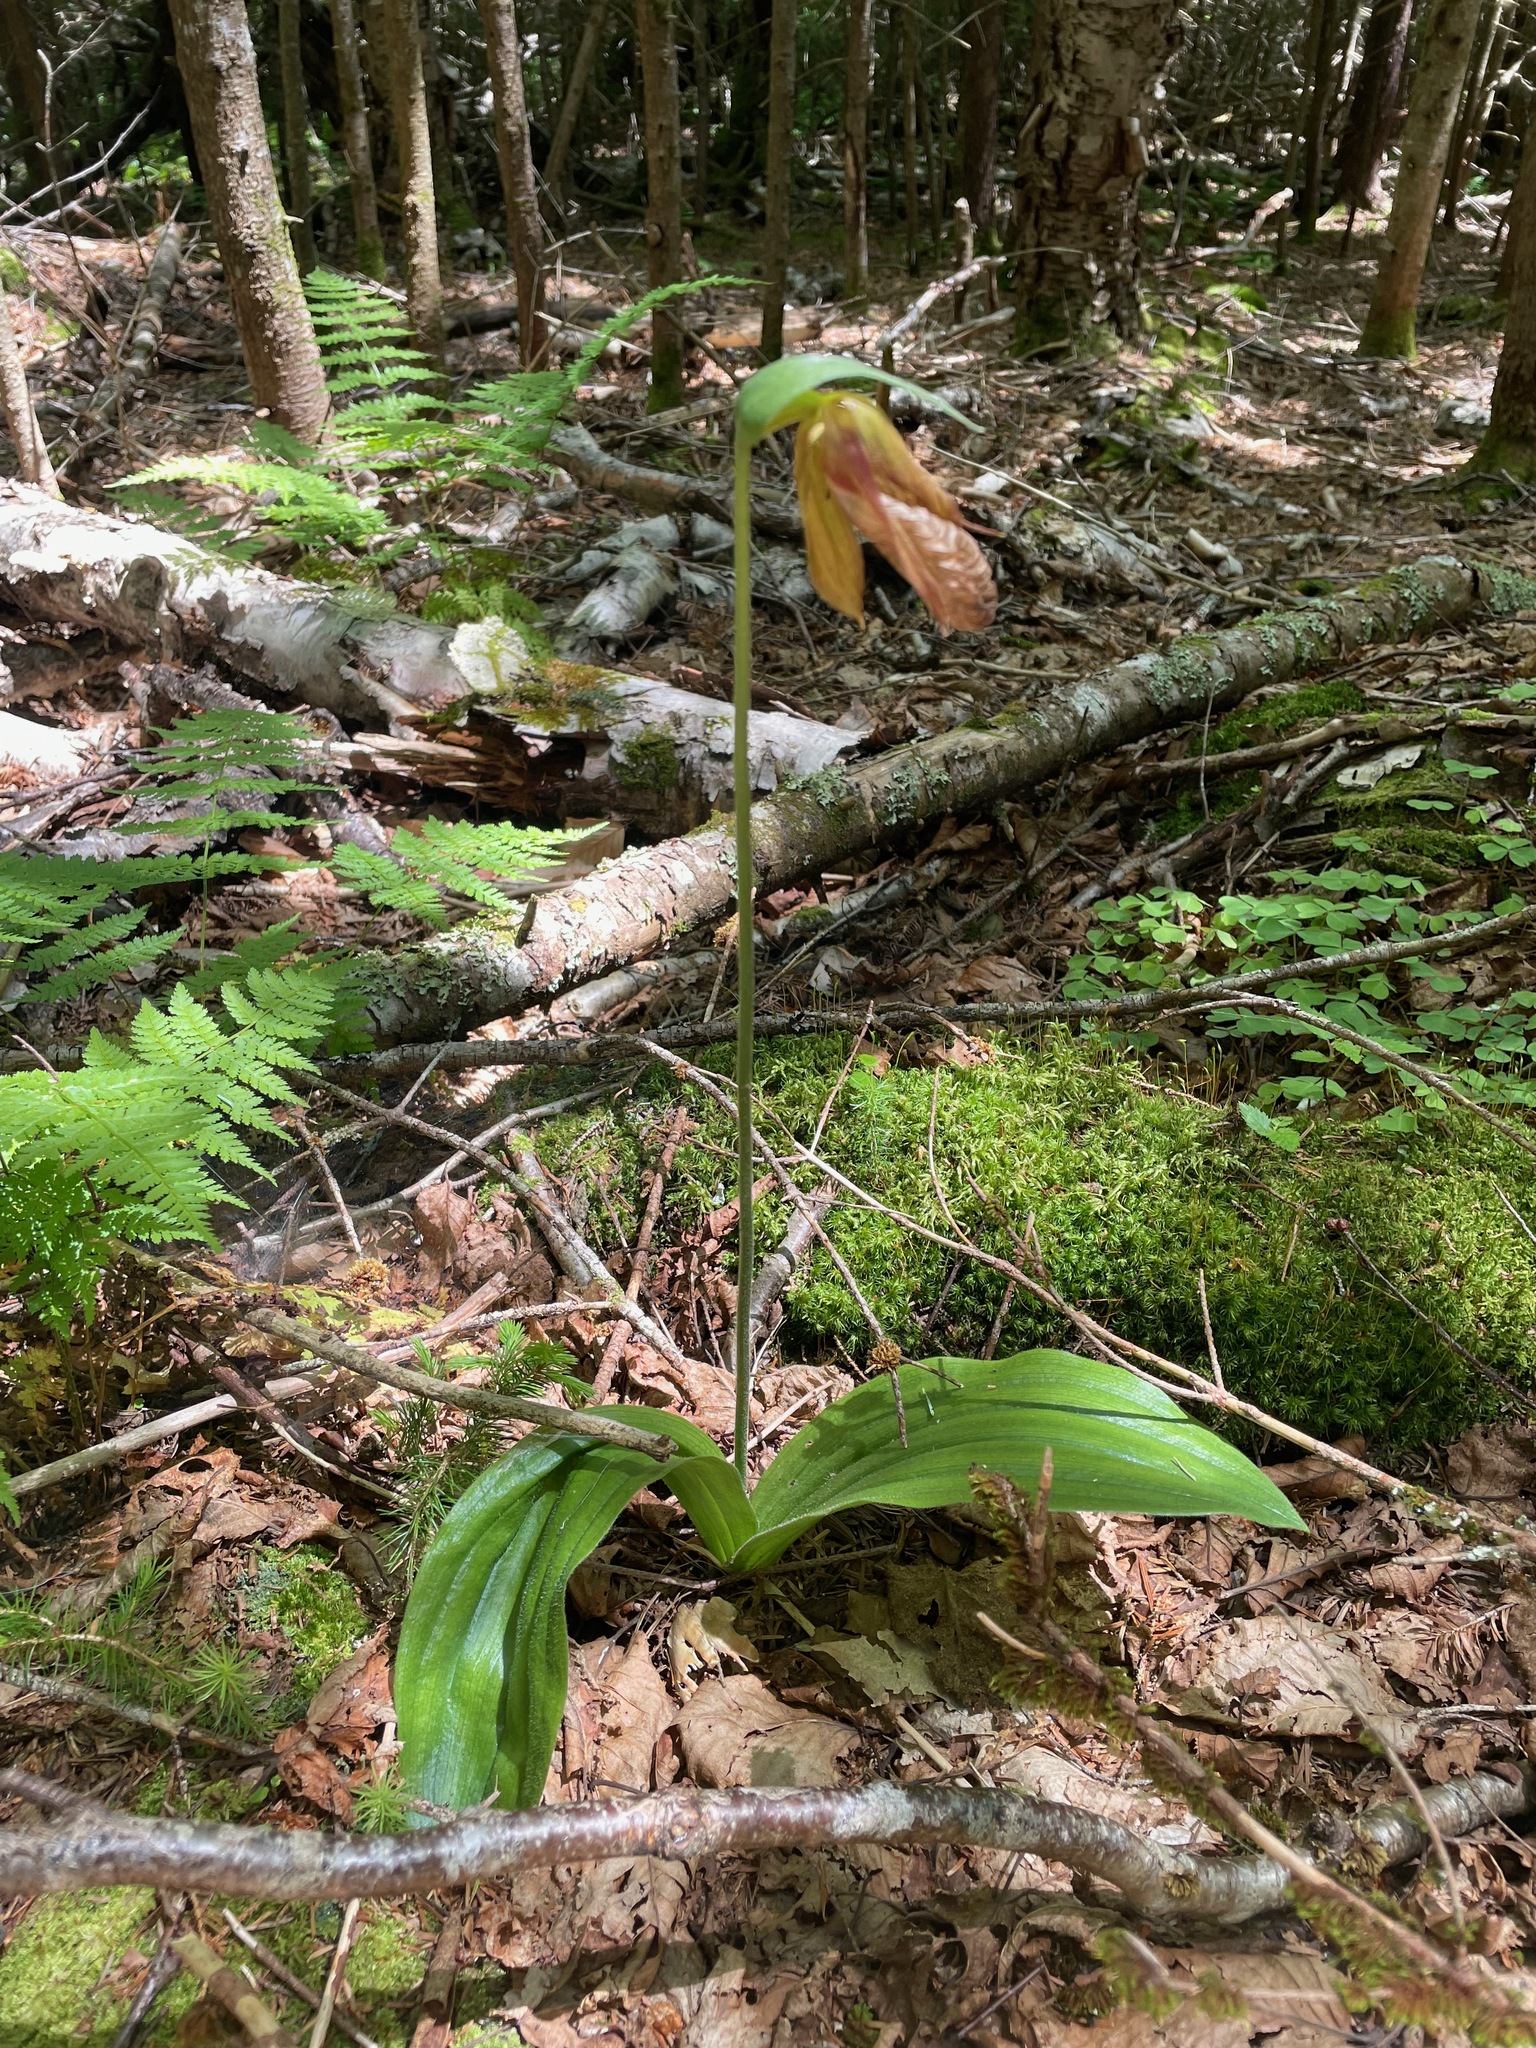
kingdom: Plantae
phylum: Tracheophyta
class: Liliopsida
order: Asparagales
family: Orchidaceae
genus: Cypripedium
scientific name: Cypripedium acaule
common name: Pink lady's-slipper
